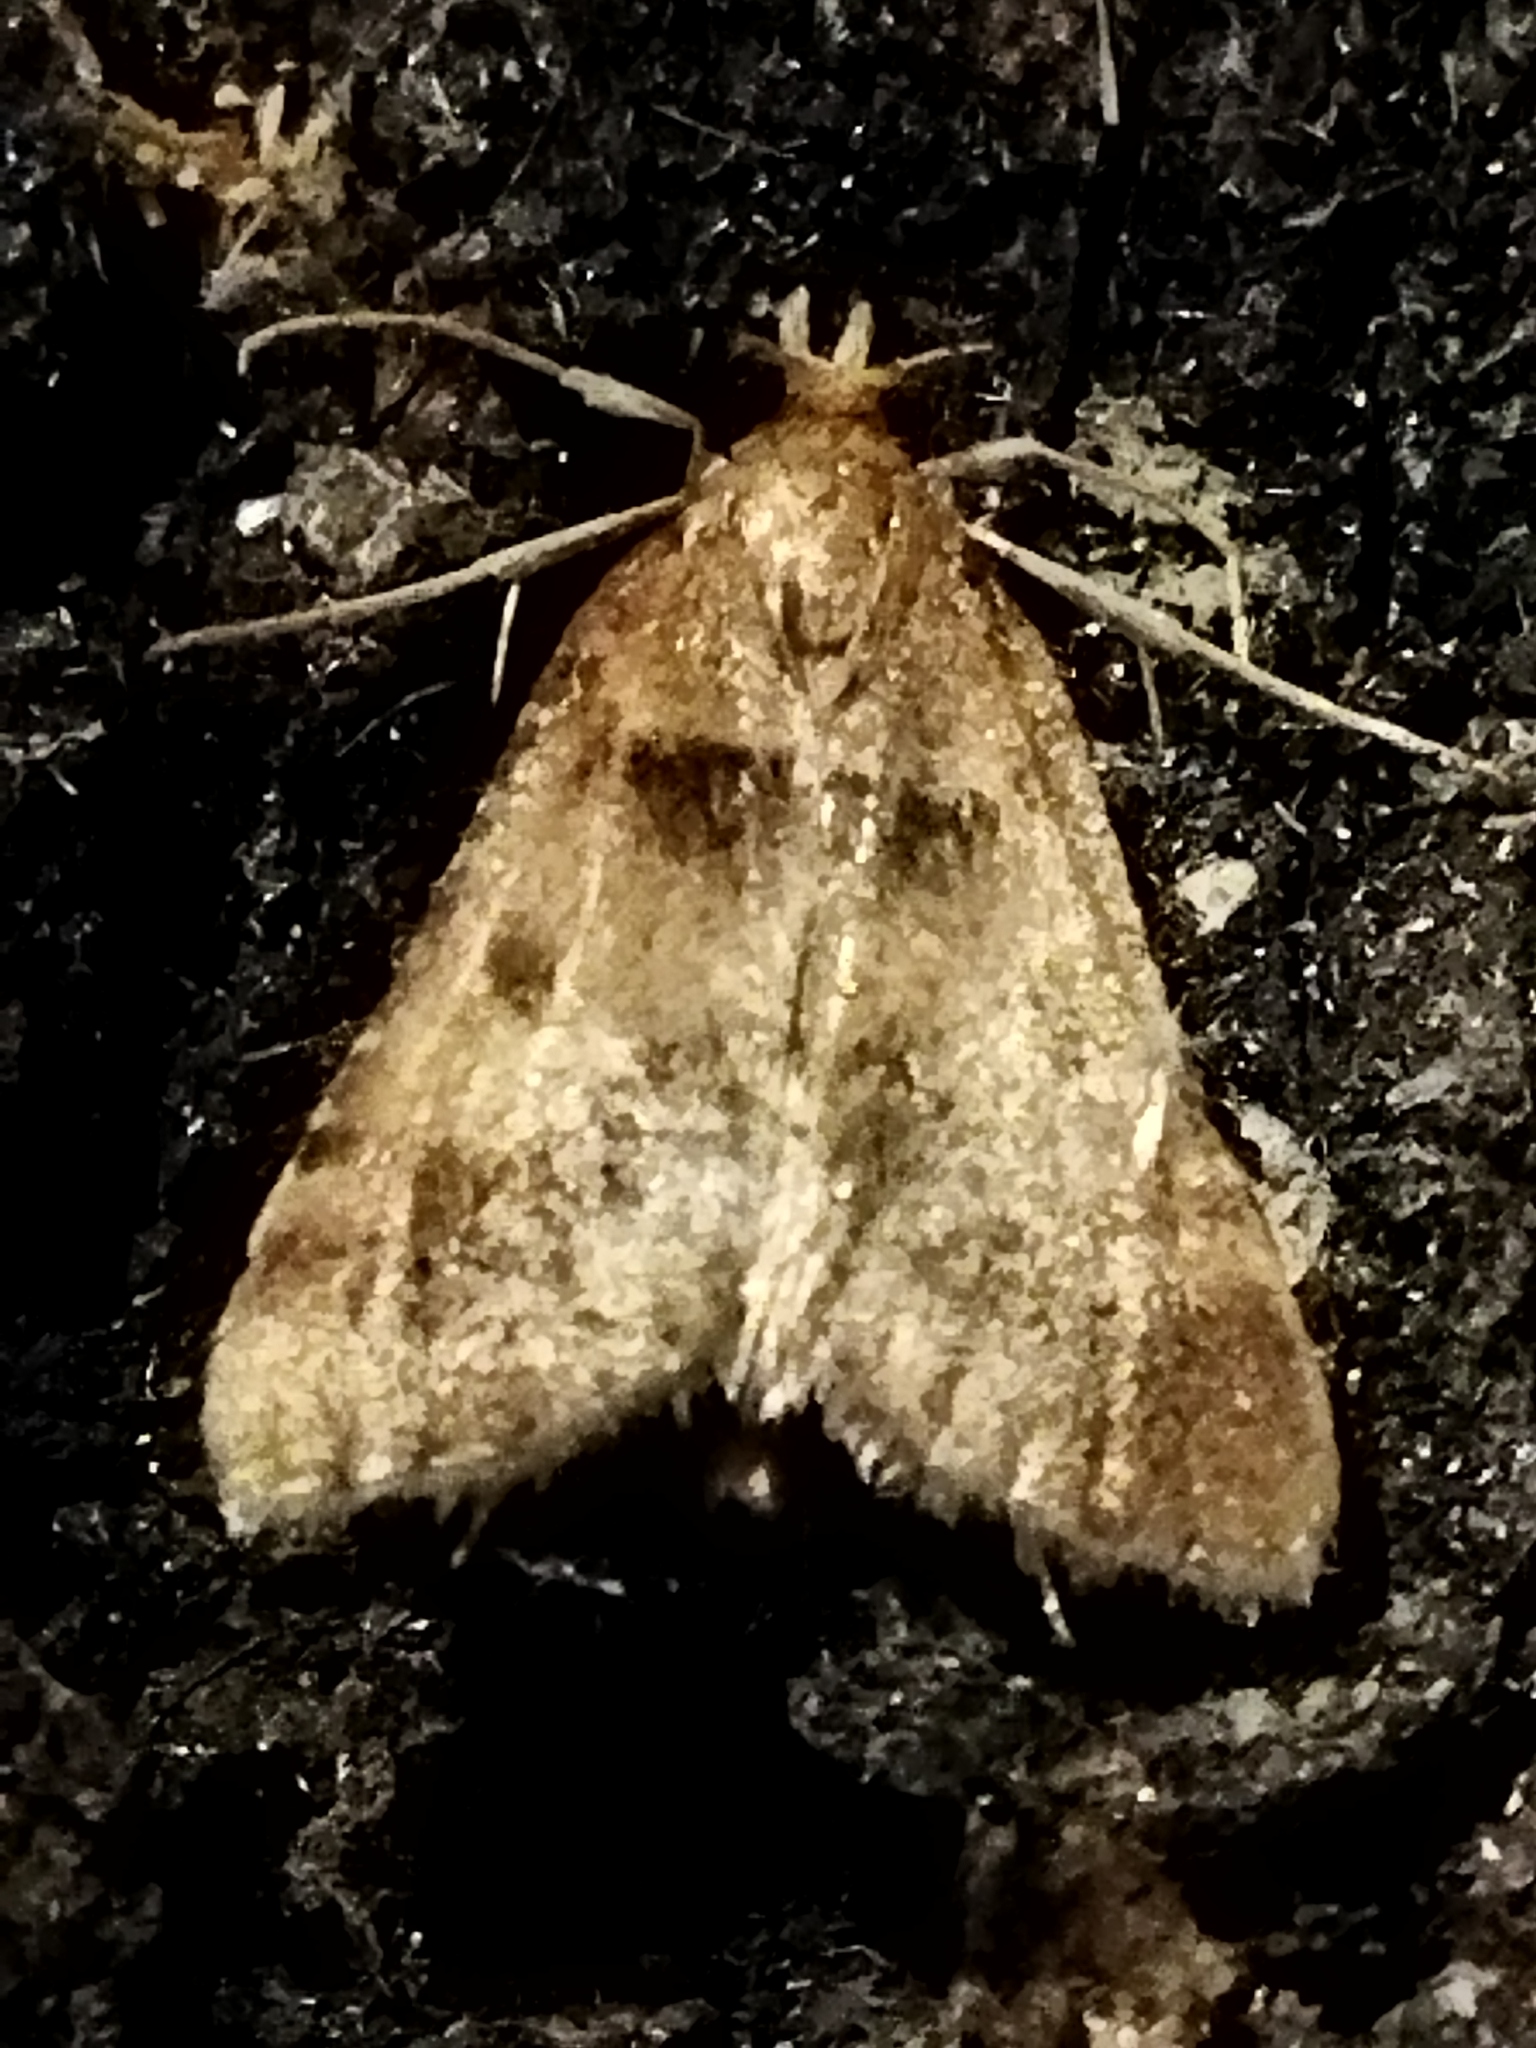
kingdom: Animalia
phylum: Arthropoda
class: Insecta
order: Lepidoptera
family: Pyralidae
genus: Stemmatophora
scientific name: Stemmatophora brunnealis
